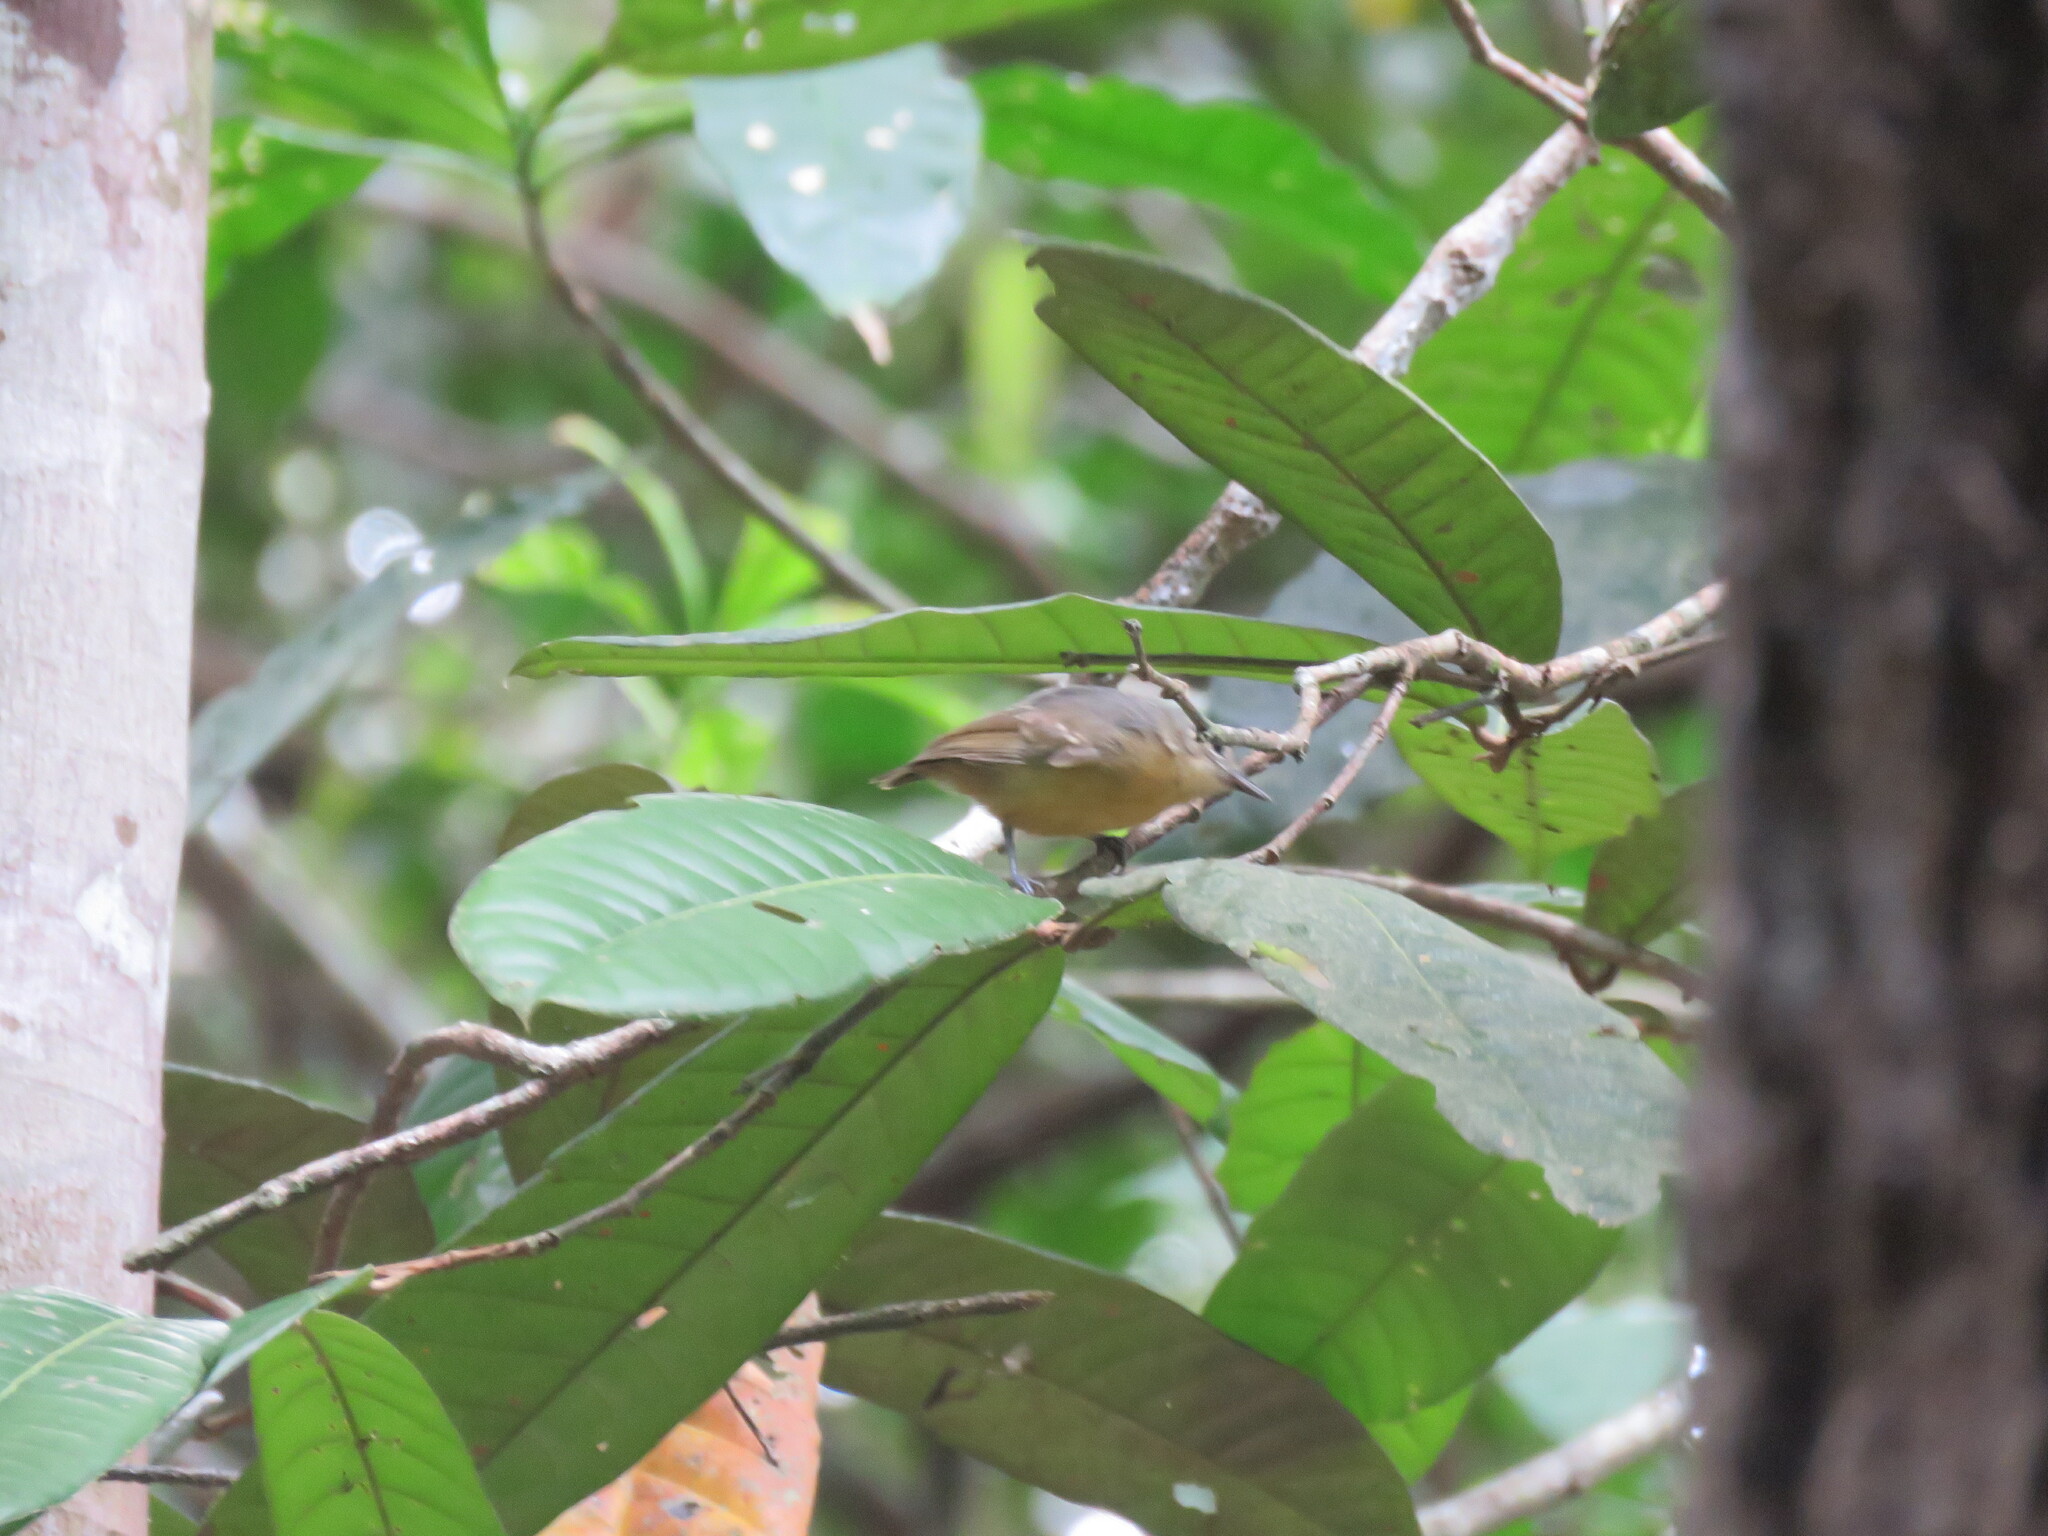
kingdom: Animalia
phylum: Chordata
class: Aves
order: Passeriformes
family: Thamnophilidae
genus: Myrmotherula
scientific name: Myrmotherula menetriesii
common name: Grey antwren
